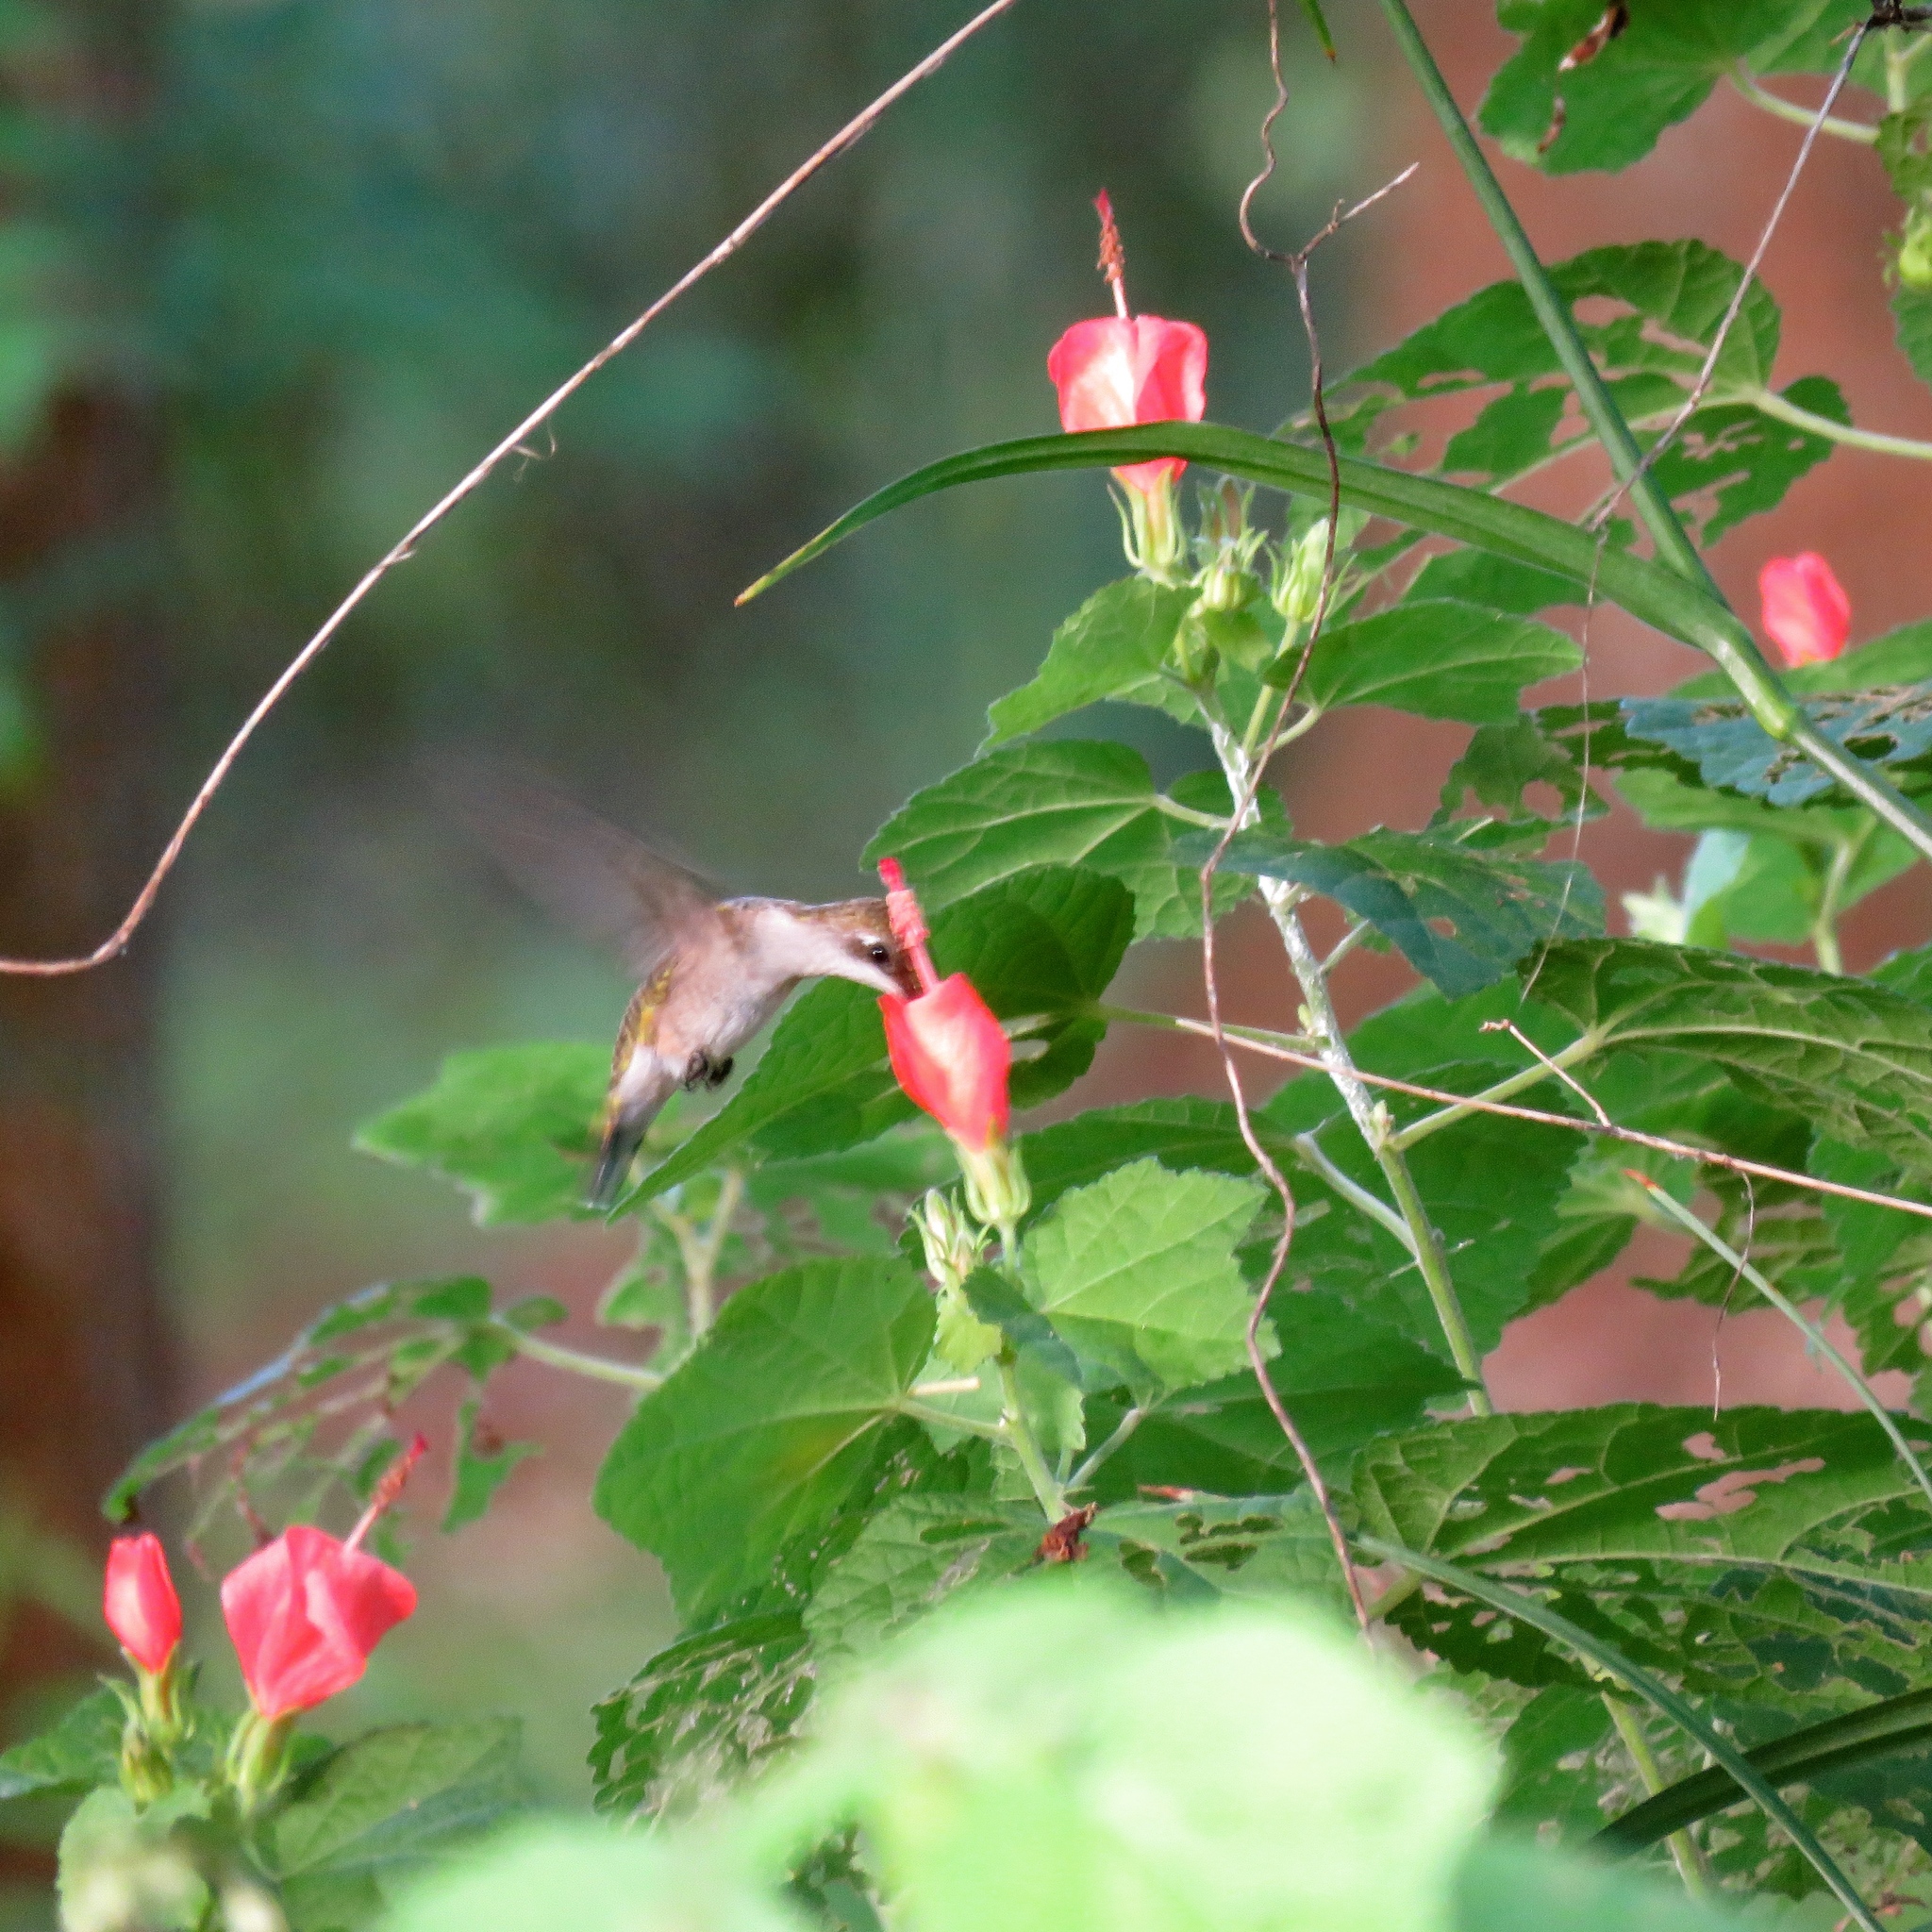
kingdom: Animalia
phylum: Chordata
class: Aves
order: Apodiformes
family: Trochilidae
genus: Archilochus
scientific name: Archilochus colubris
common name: Ruby-throated hummingbird
